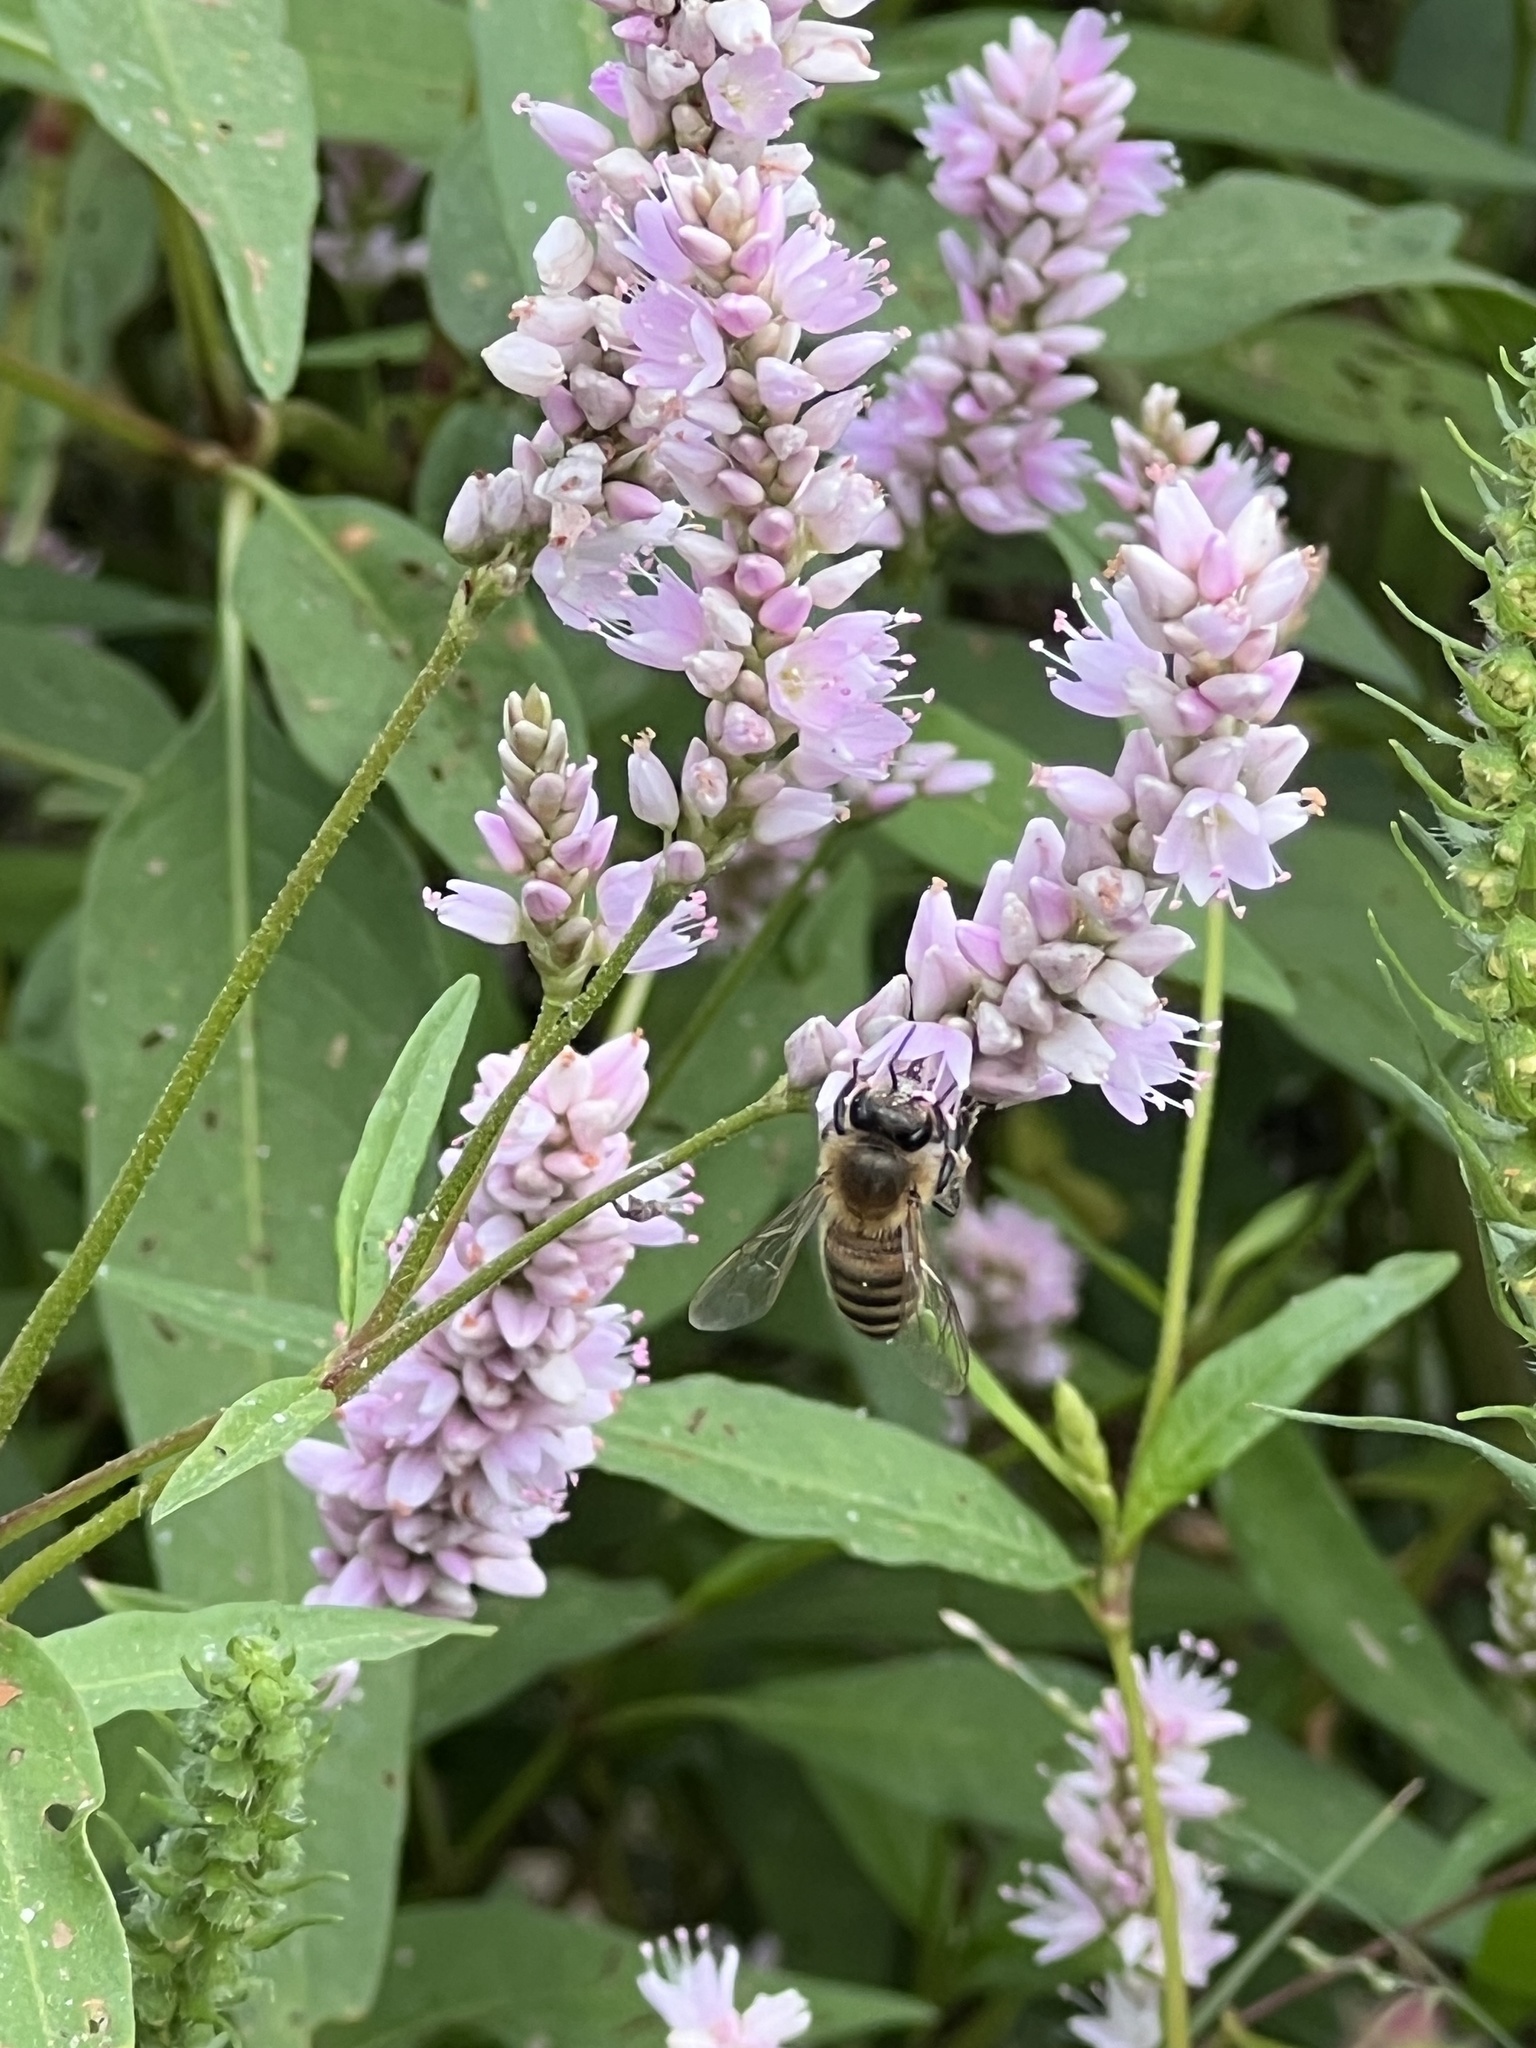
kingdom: Animalia
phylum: Arthropoda
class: Insecta
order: Hymenoptera
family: Apidae
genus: Apis
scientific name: Apis mellifera
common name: Honey bee
